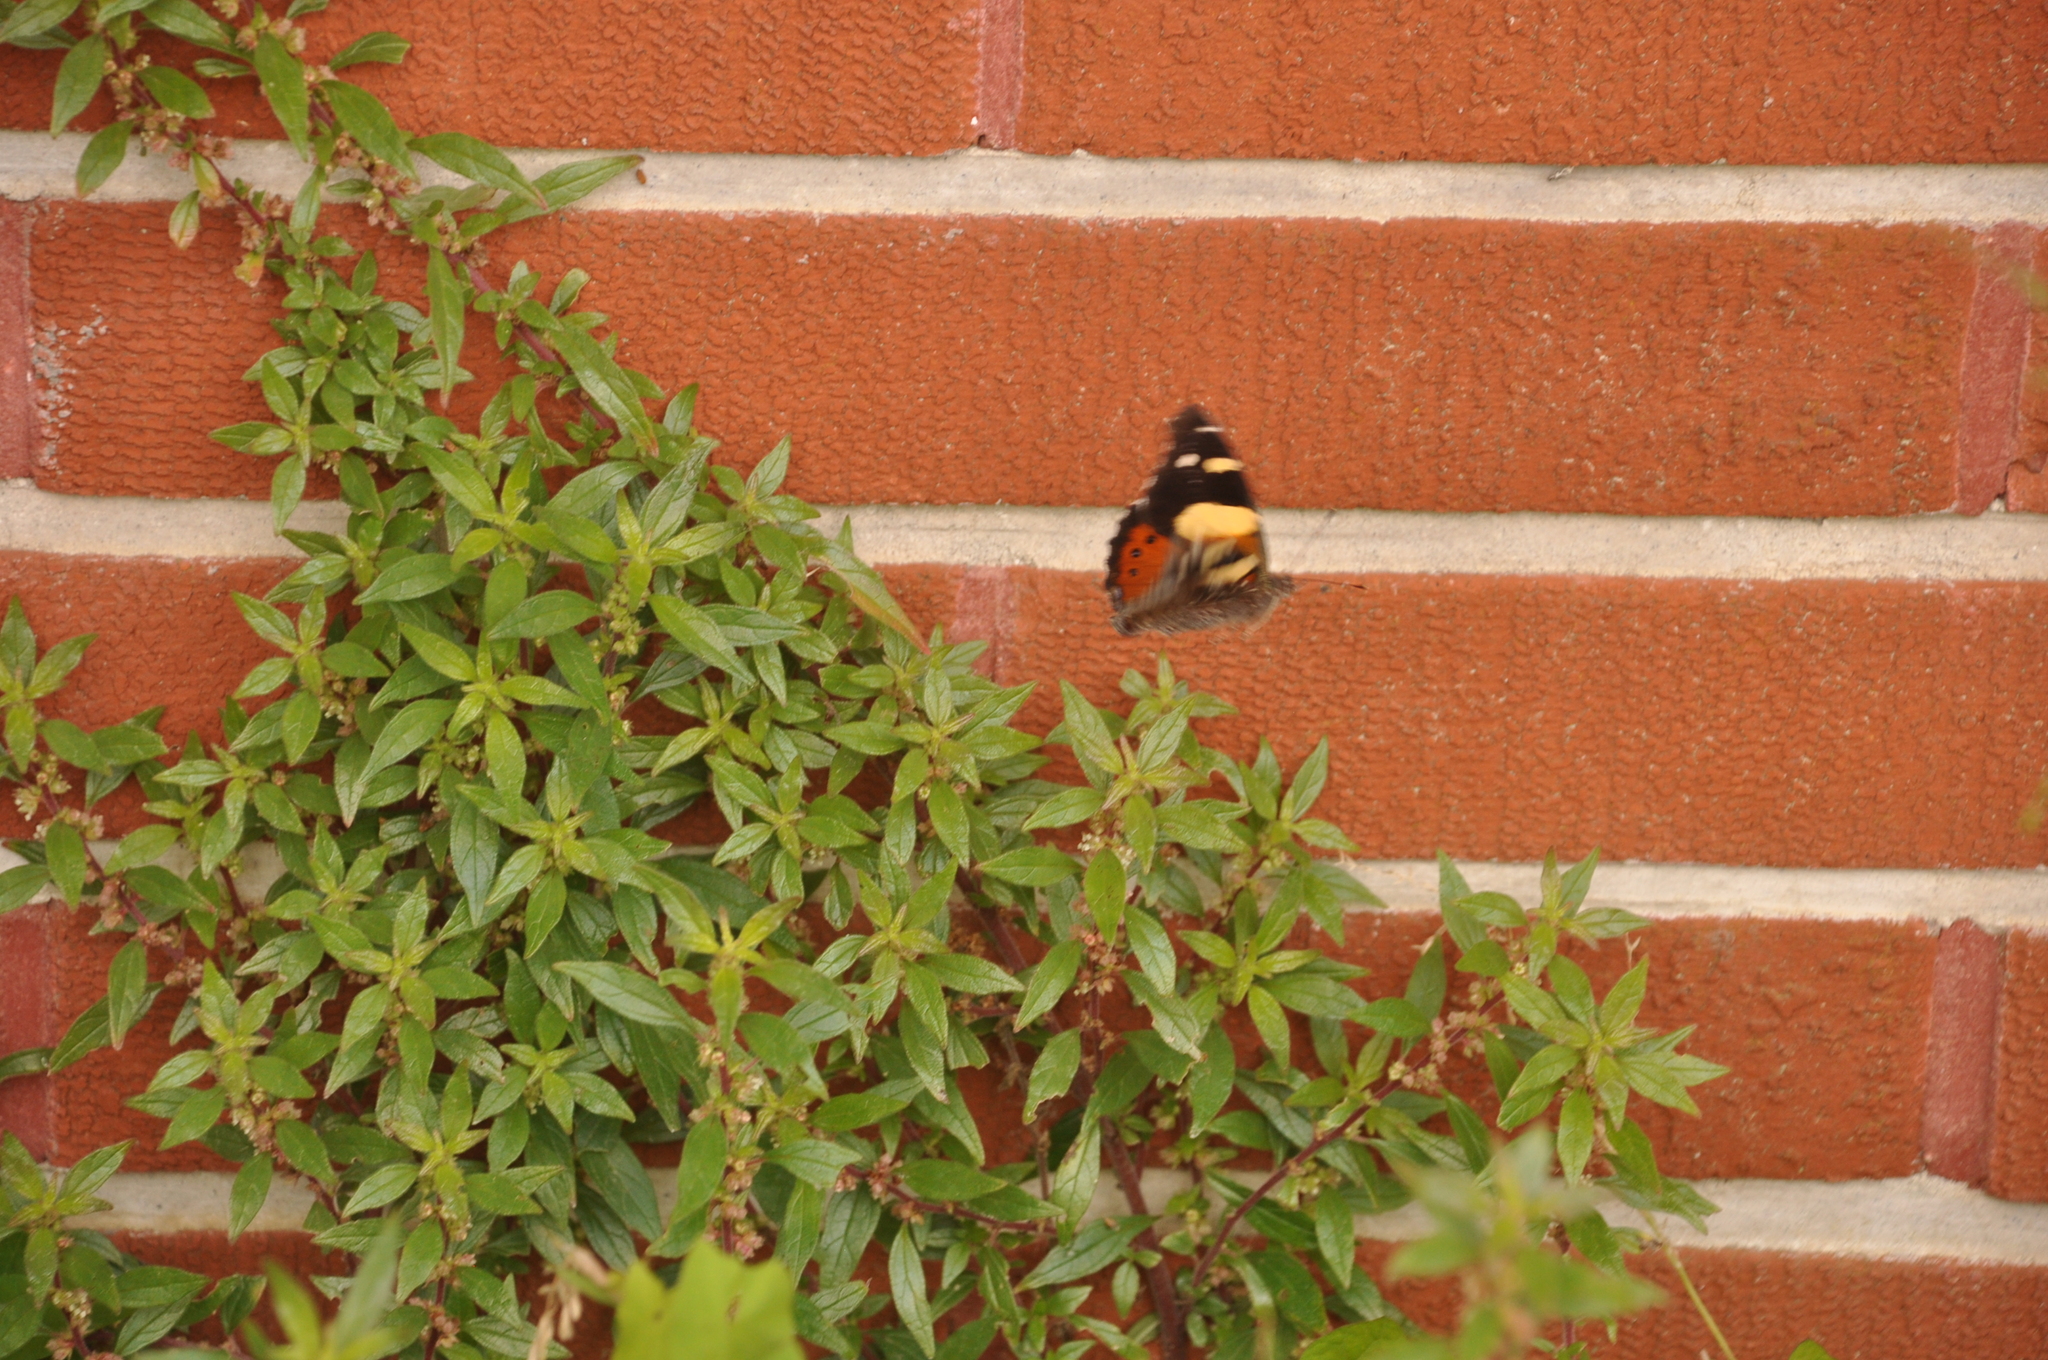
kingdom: Animalia
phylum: Arthropoda
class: Insecta
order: Lepidoptera
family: Nymphalidae
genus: Vanessa
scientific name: Vanessa itea
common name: Yellow admiral
